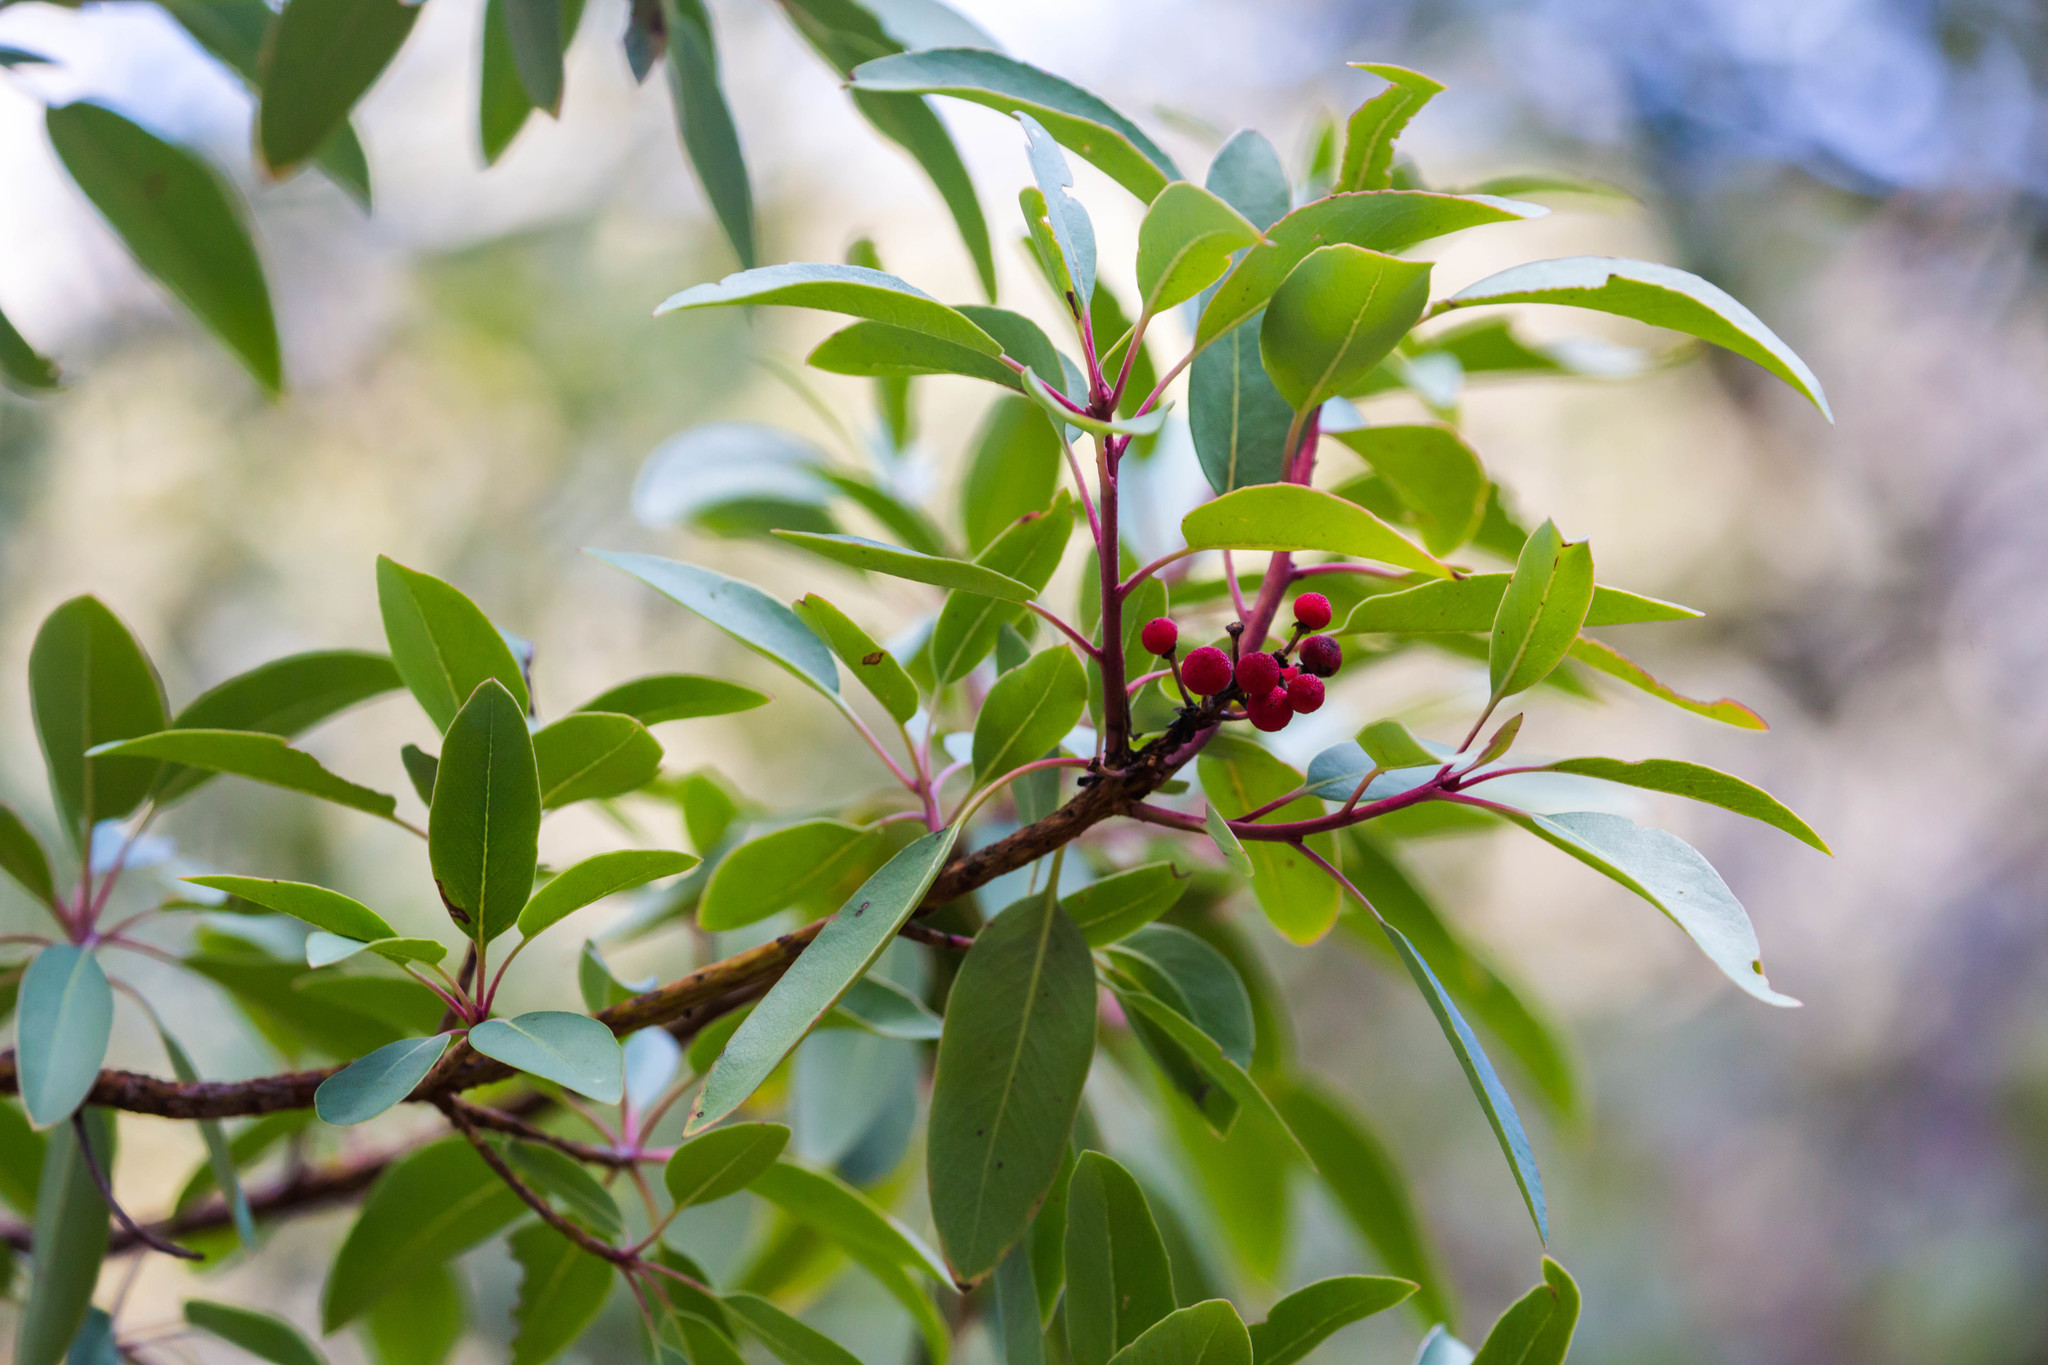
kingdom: Plantae
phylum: Tracheophyta
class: Magnoliopsida
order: Ericales
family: Ericaceae
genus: Arbutus
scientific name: Arbutus arizonica
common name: Arizona madrone
